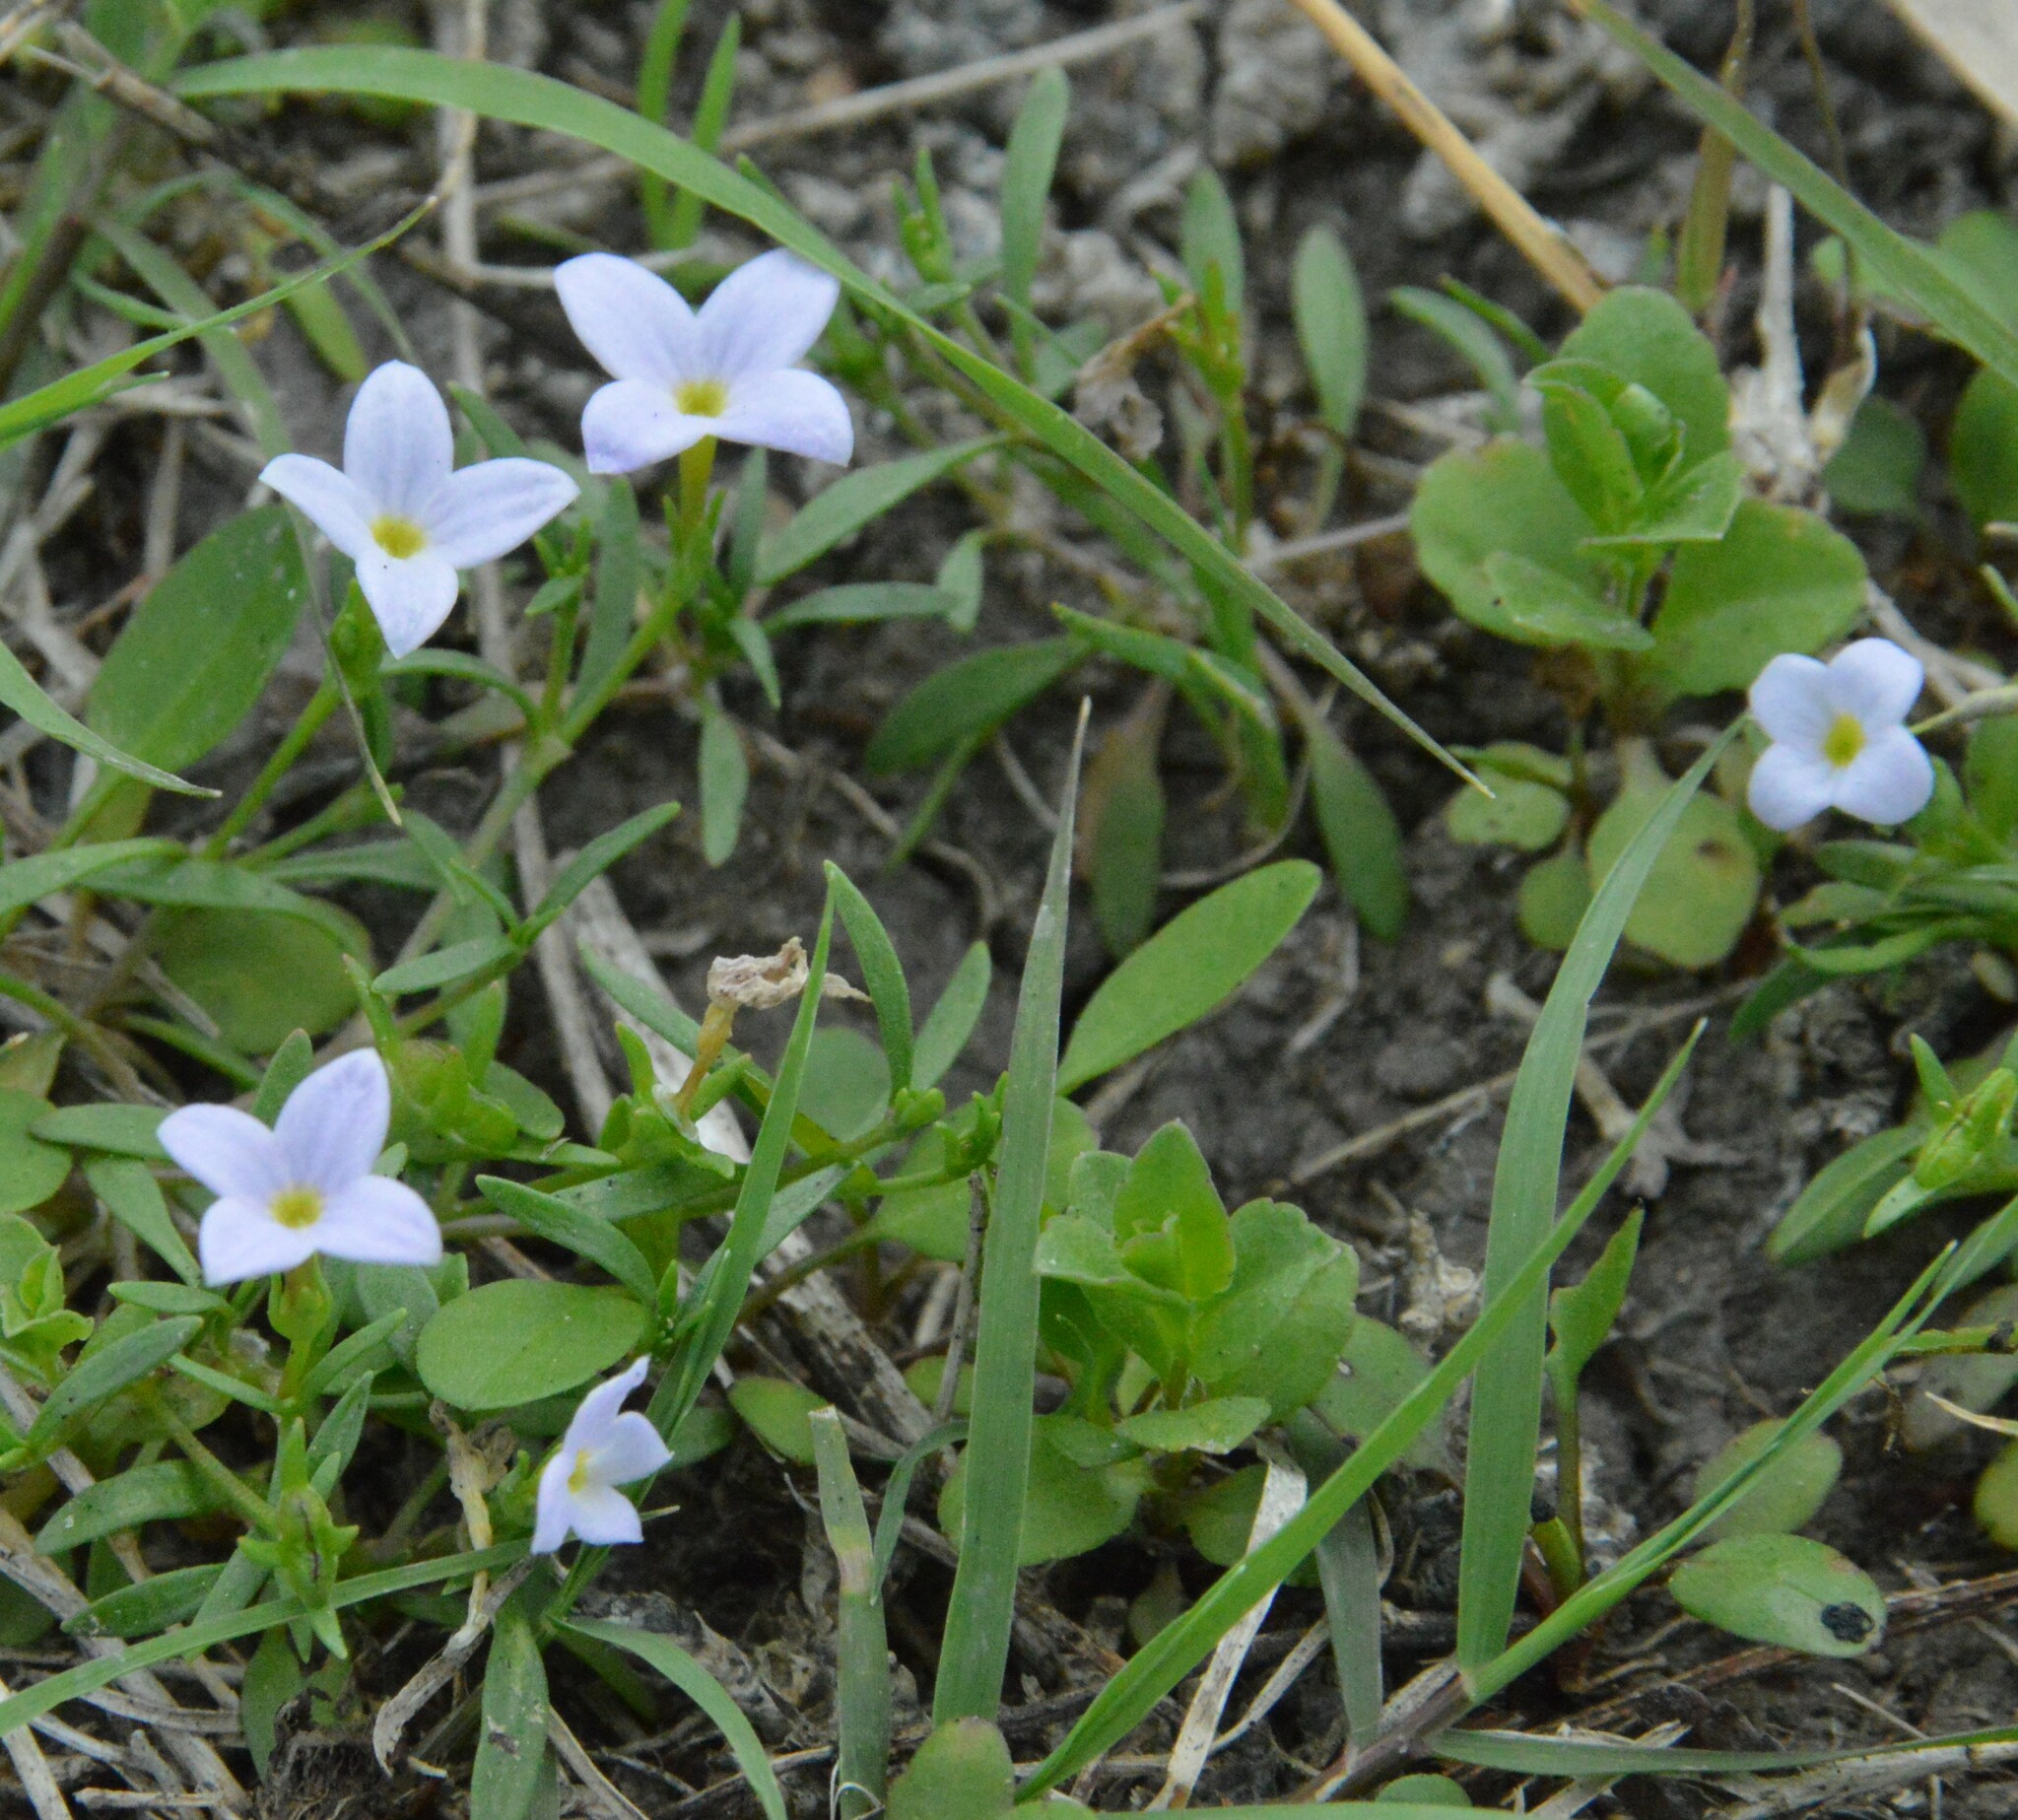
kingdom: Plantae
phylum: Tracheophyta
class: Magnoliopsida
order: Gentianales
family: Rubiaceae
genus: Houstonia
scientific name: Houstonia rosea
